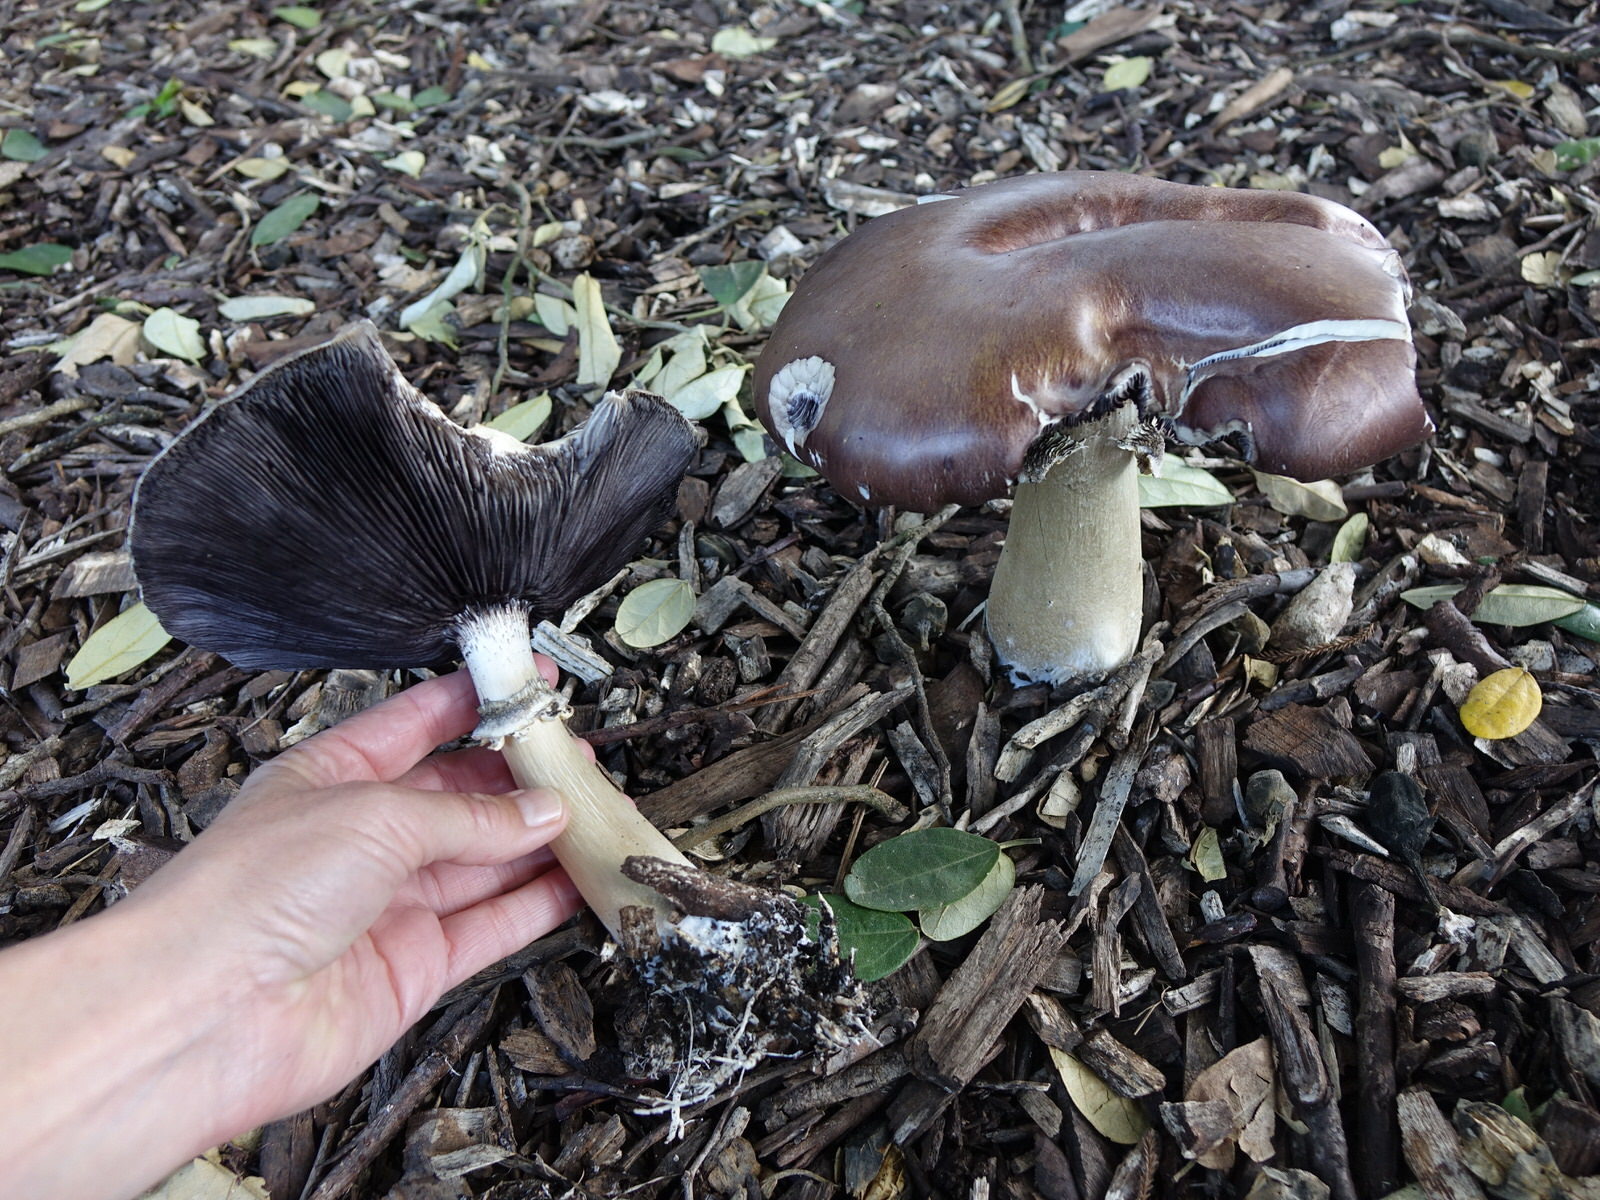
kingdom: Fungi
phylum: Basidiomycota
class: Agaricomycetes
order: Agaricales
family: Strophariaceae
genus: Stropharia
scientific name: Stropharia rugosoannulata
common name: Wine roundhead
